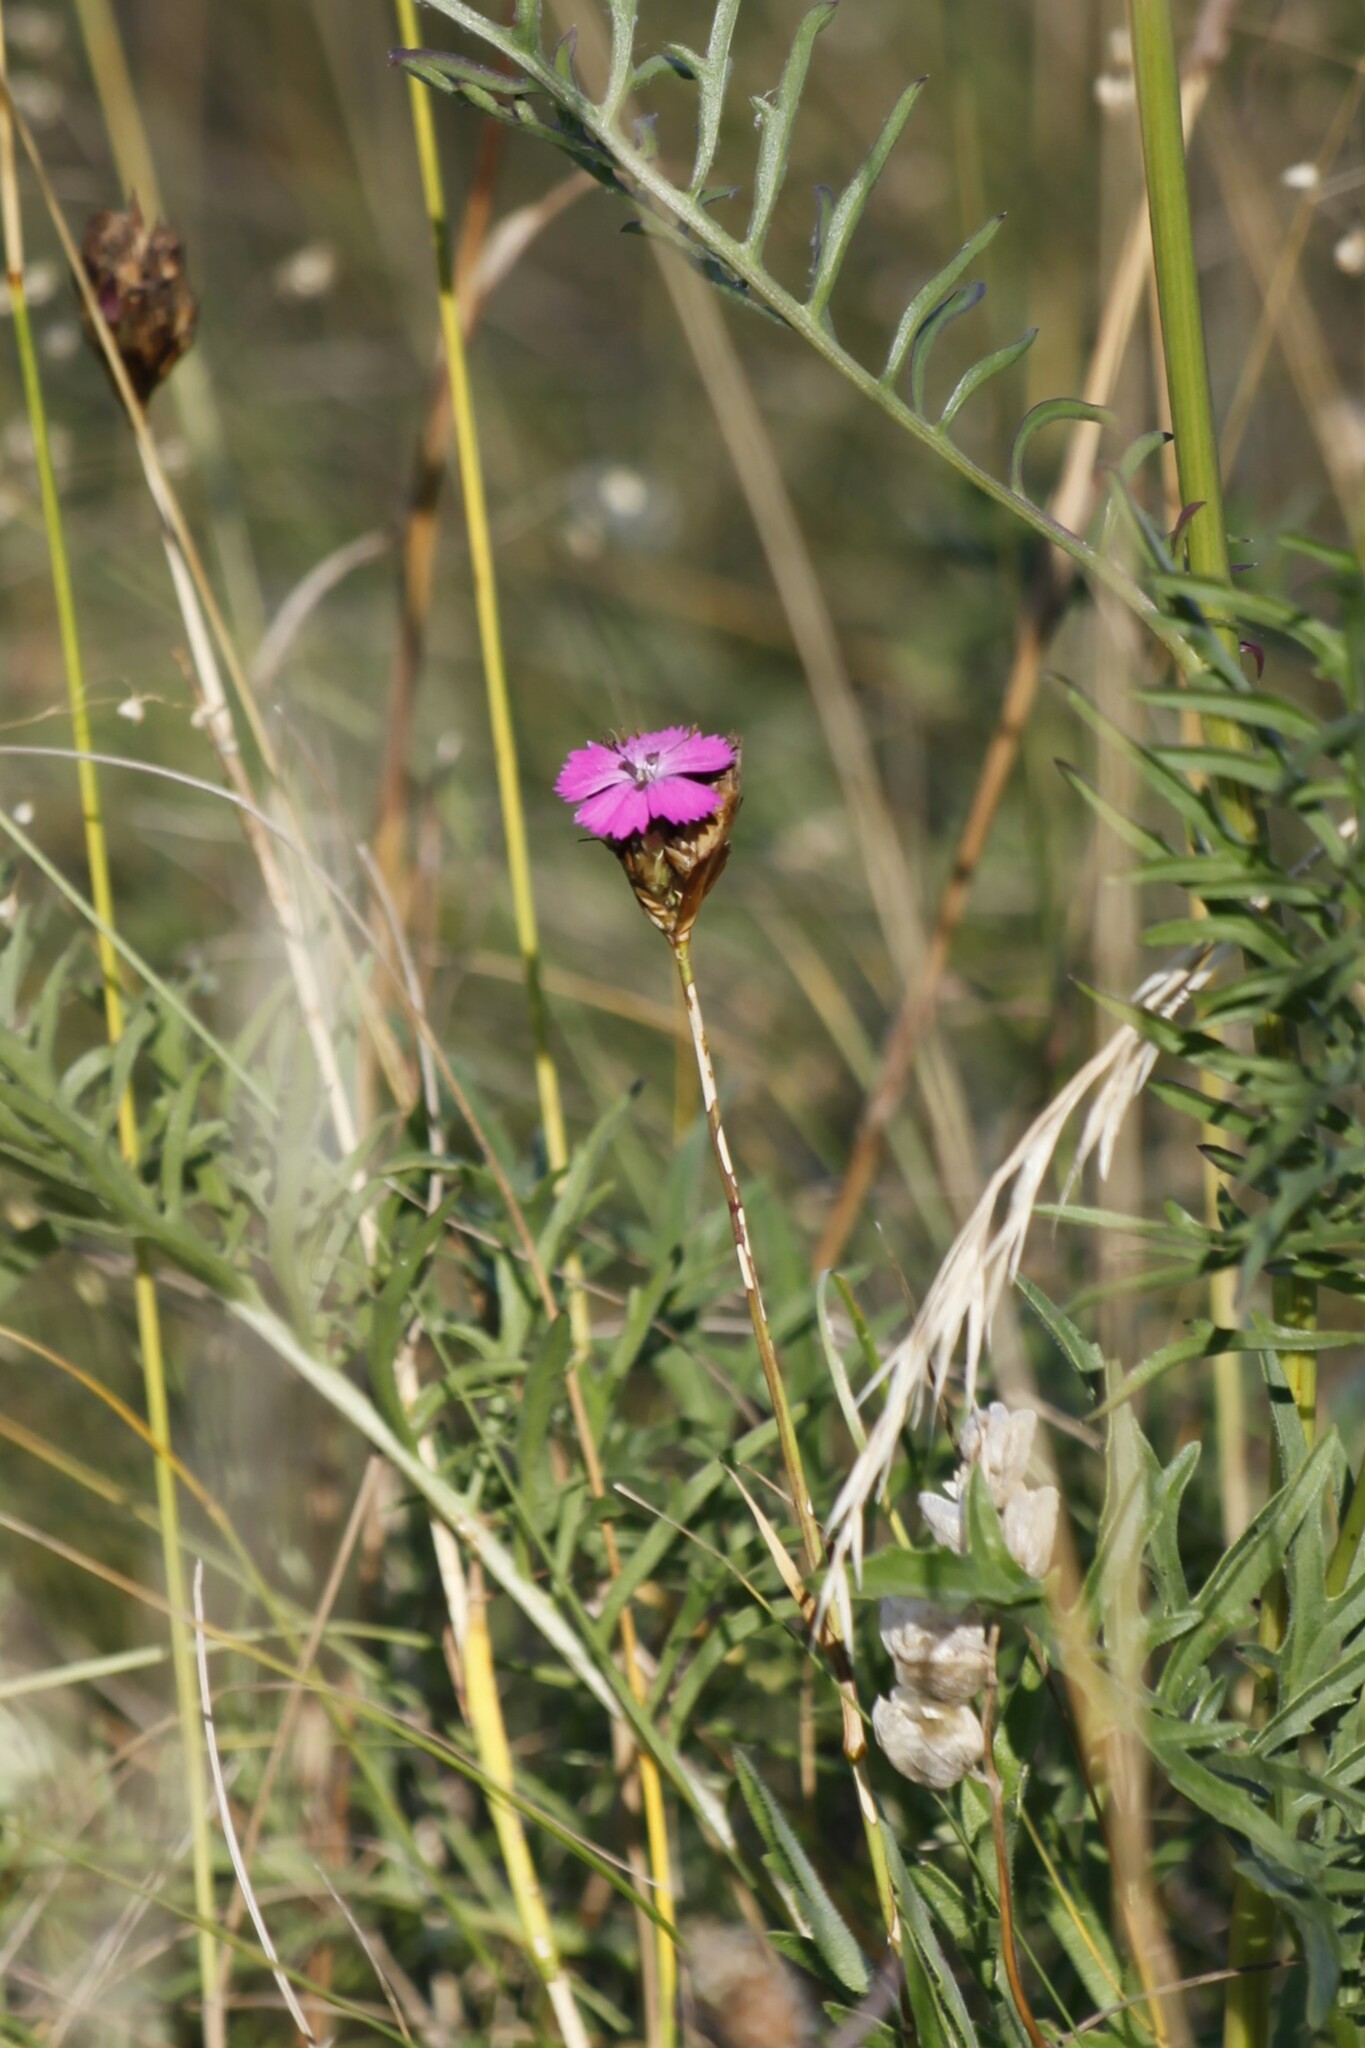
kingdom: Plantae
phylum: Tracheophyta
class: Magnoliopsida
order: Caryophyllales
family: Caryophyllaceae
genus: Dianthus
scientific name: Dianthus carthusianorum
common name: Carthusian pink
